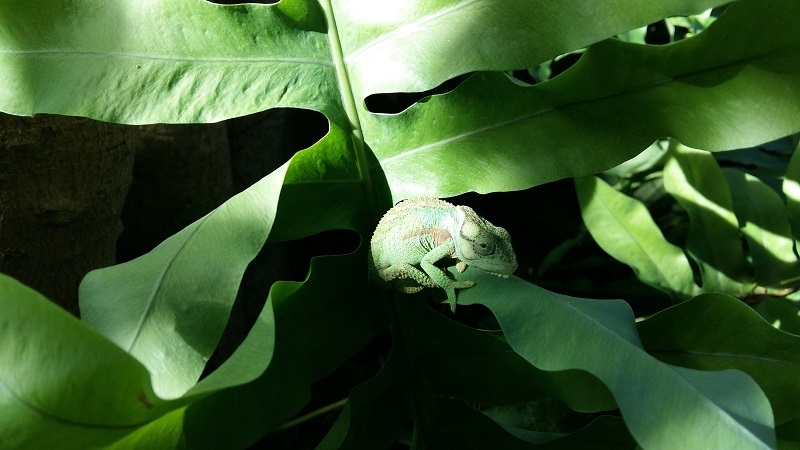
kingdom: Animalia
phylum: Chordata
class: Squamata
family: Chamaeleonidae
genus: Bradypodion
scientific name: Bradypodion damaranum
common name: Knysna dwarf chameleon
